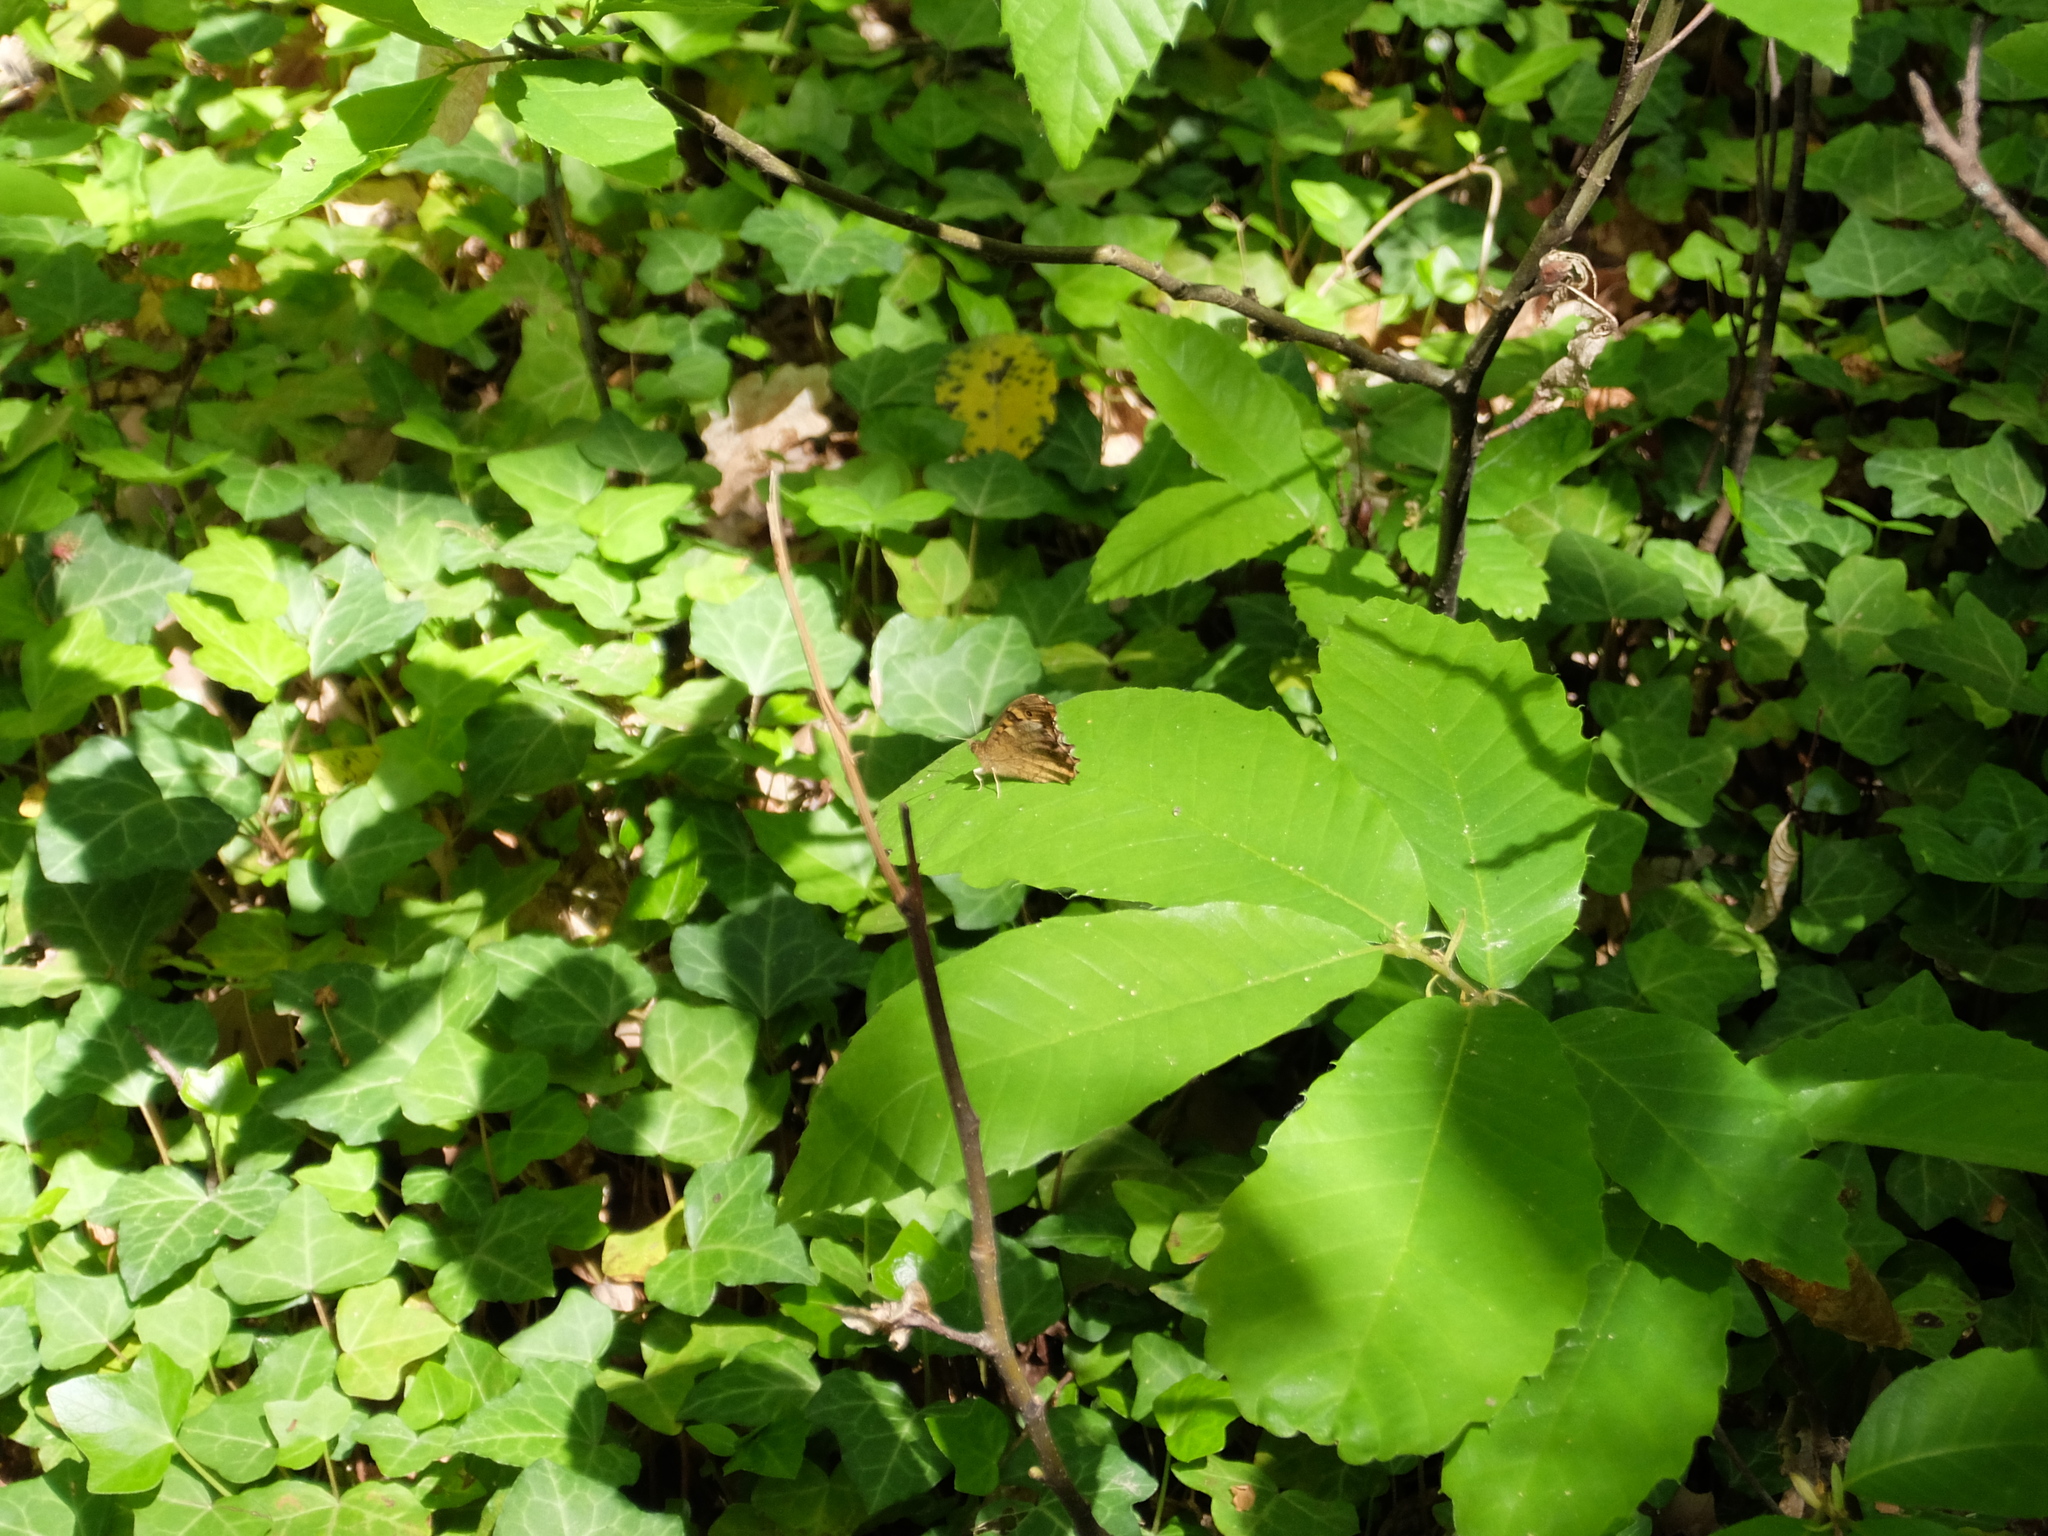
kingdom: Animalia
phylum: Arthropoda
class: Insecta
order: Lepidoptera
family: Nymphalidae
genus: Pararge
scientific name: Pararge aegeria
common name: Speckled wood
